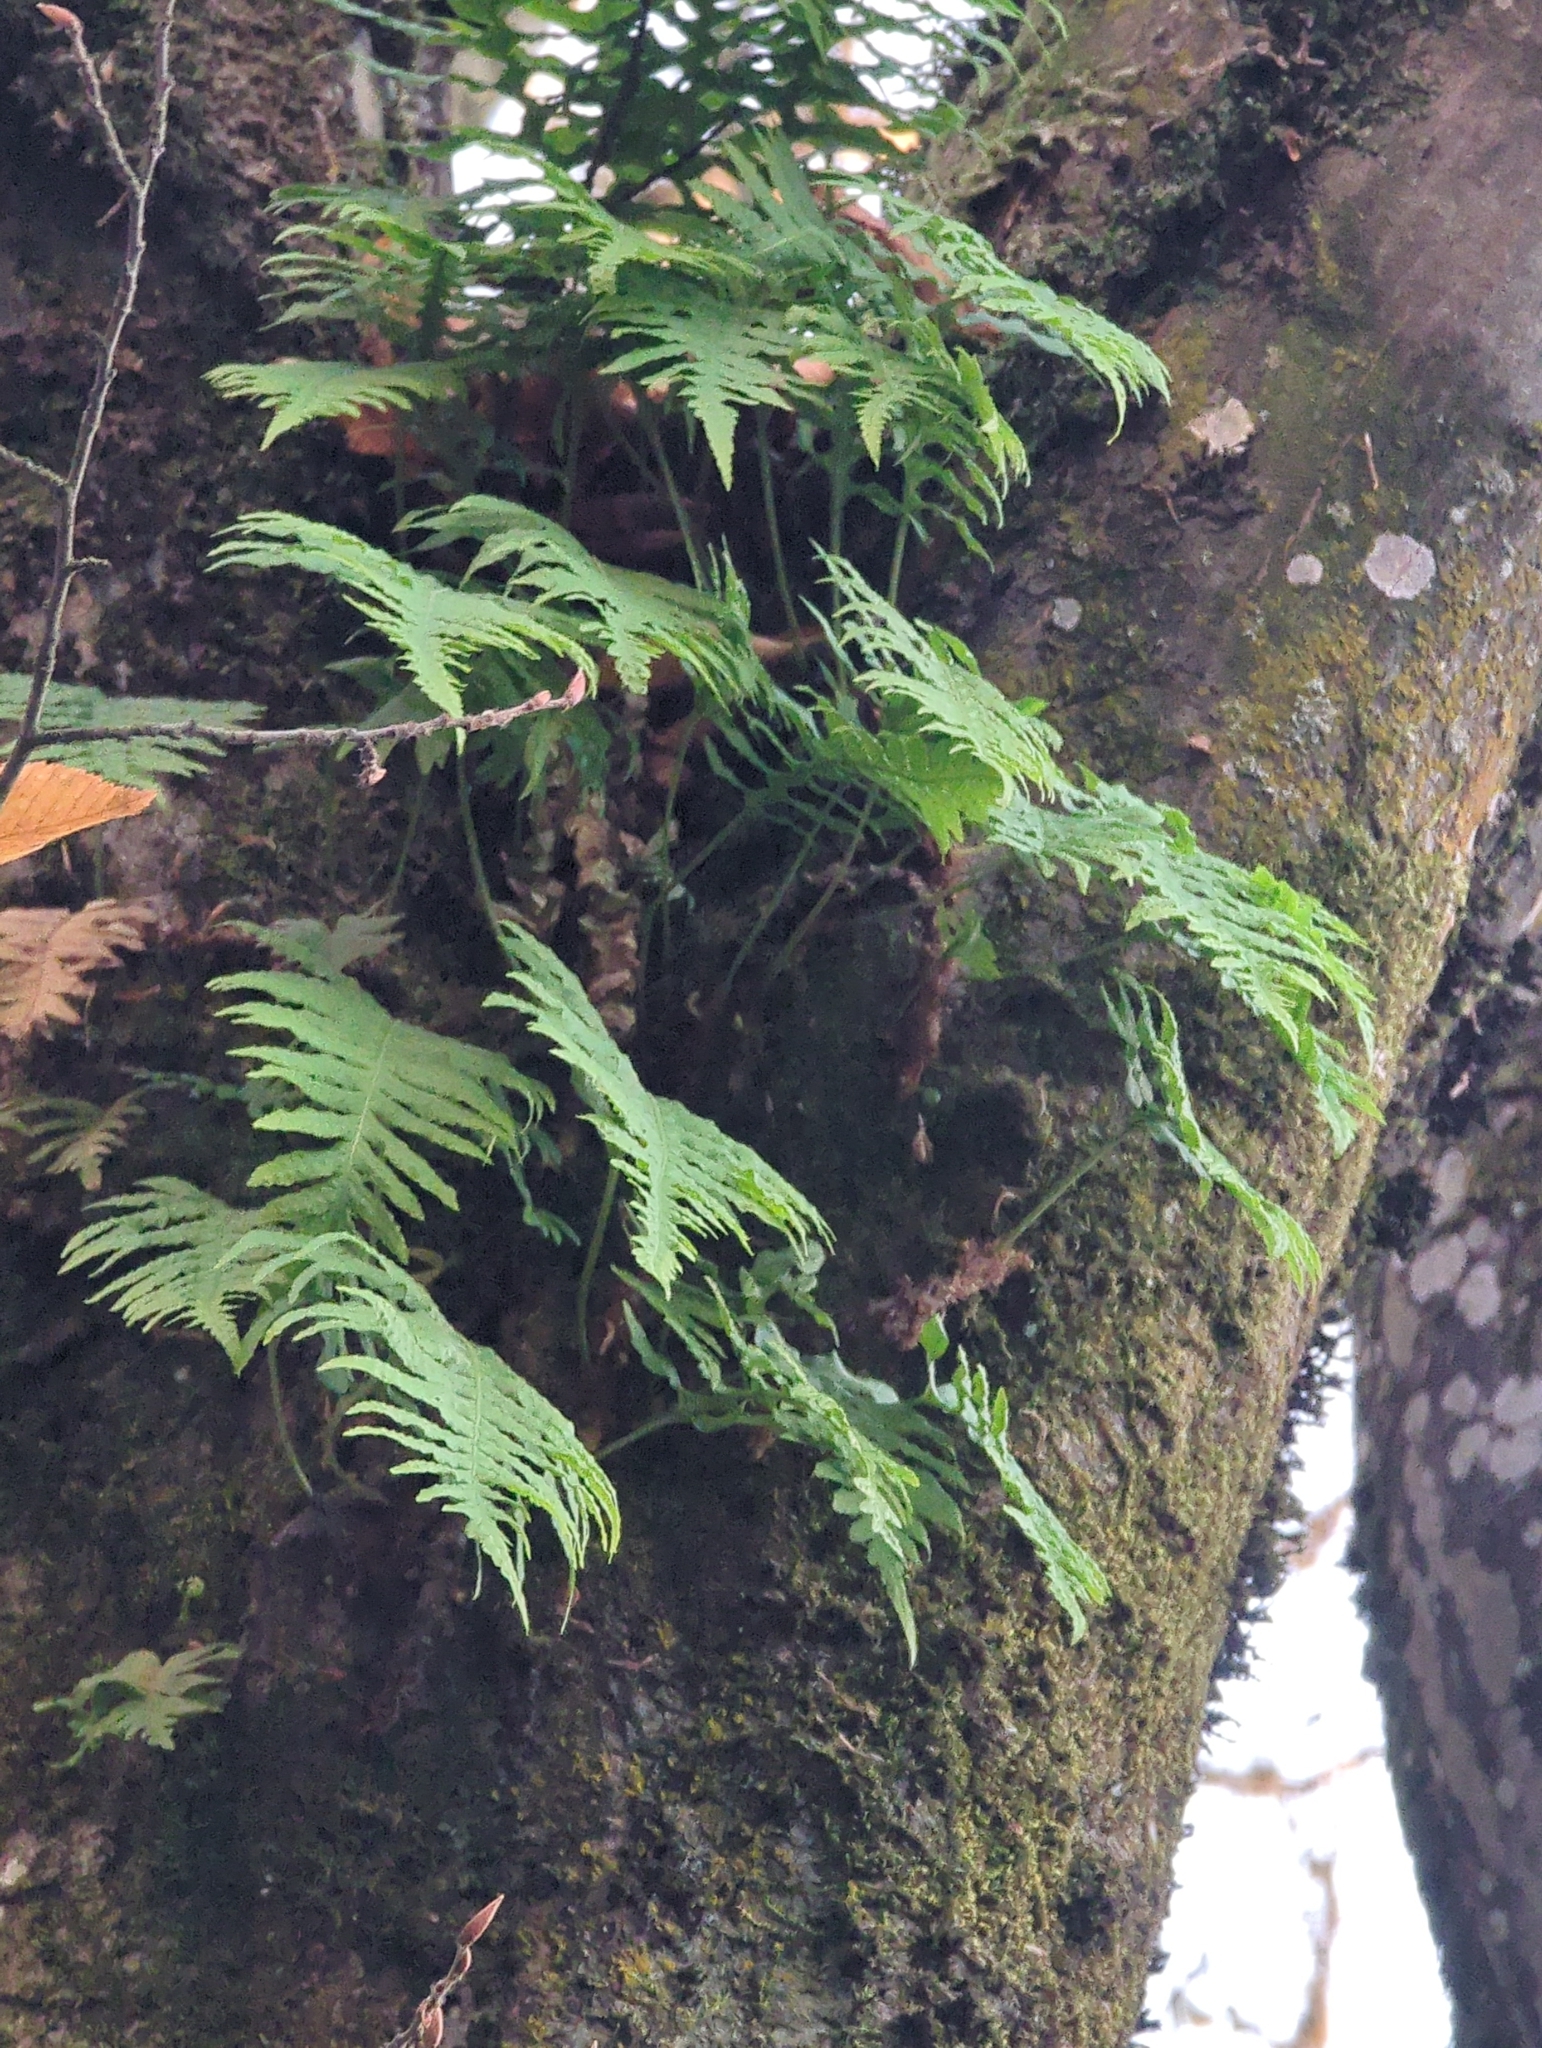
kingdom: Plantae
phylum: Tracheophyta
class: Polypodiopsida
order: Polypodiales
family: Polypodiaceae
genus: Polypodium
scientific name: Polypodium glycyrrhiza
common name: Licorice fern
